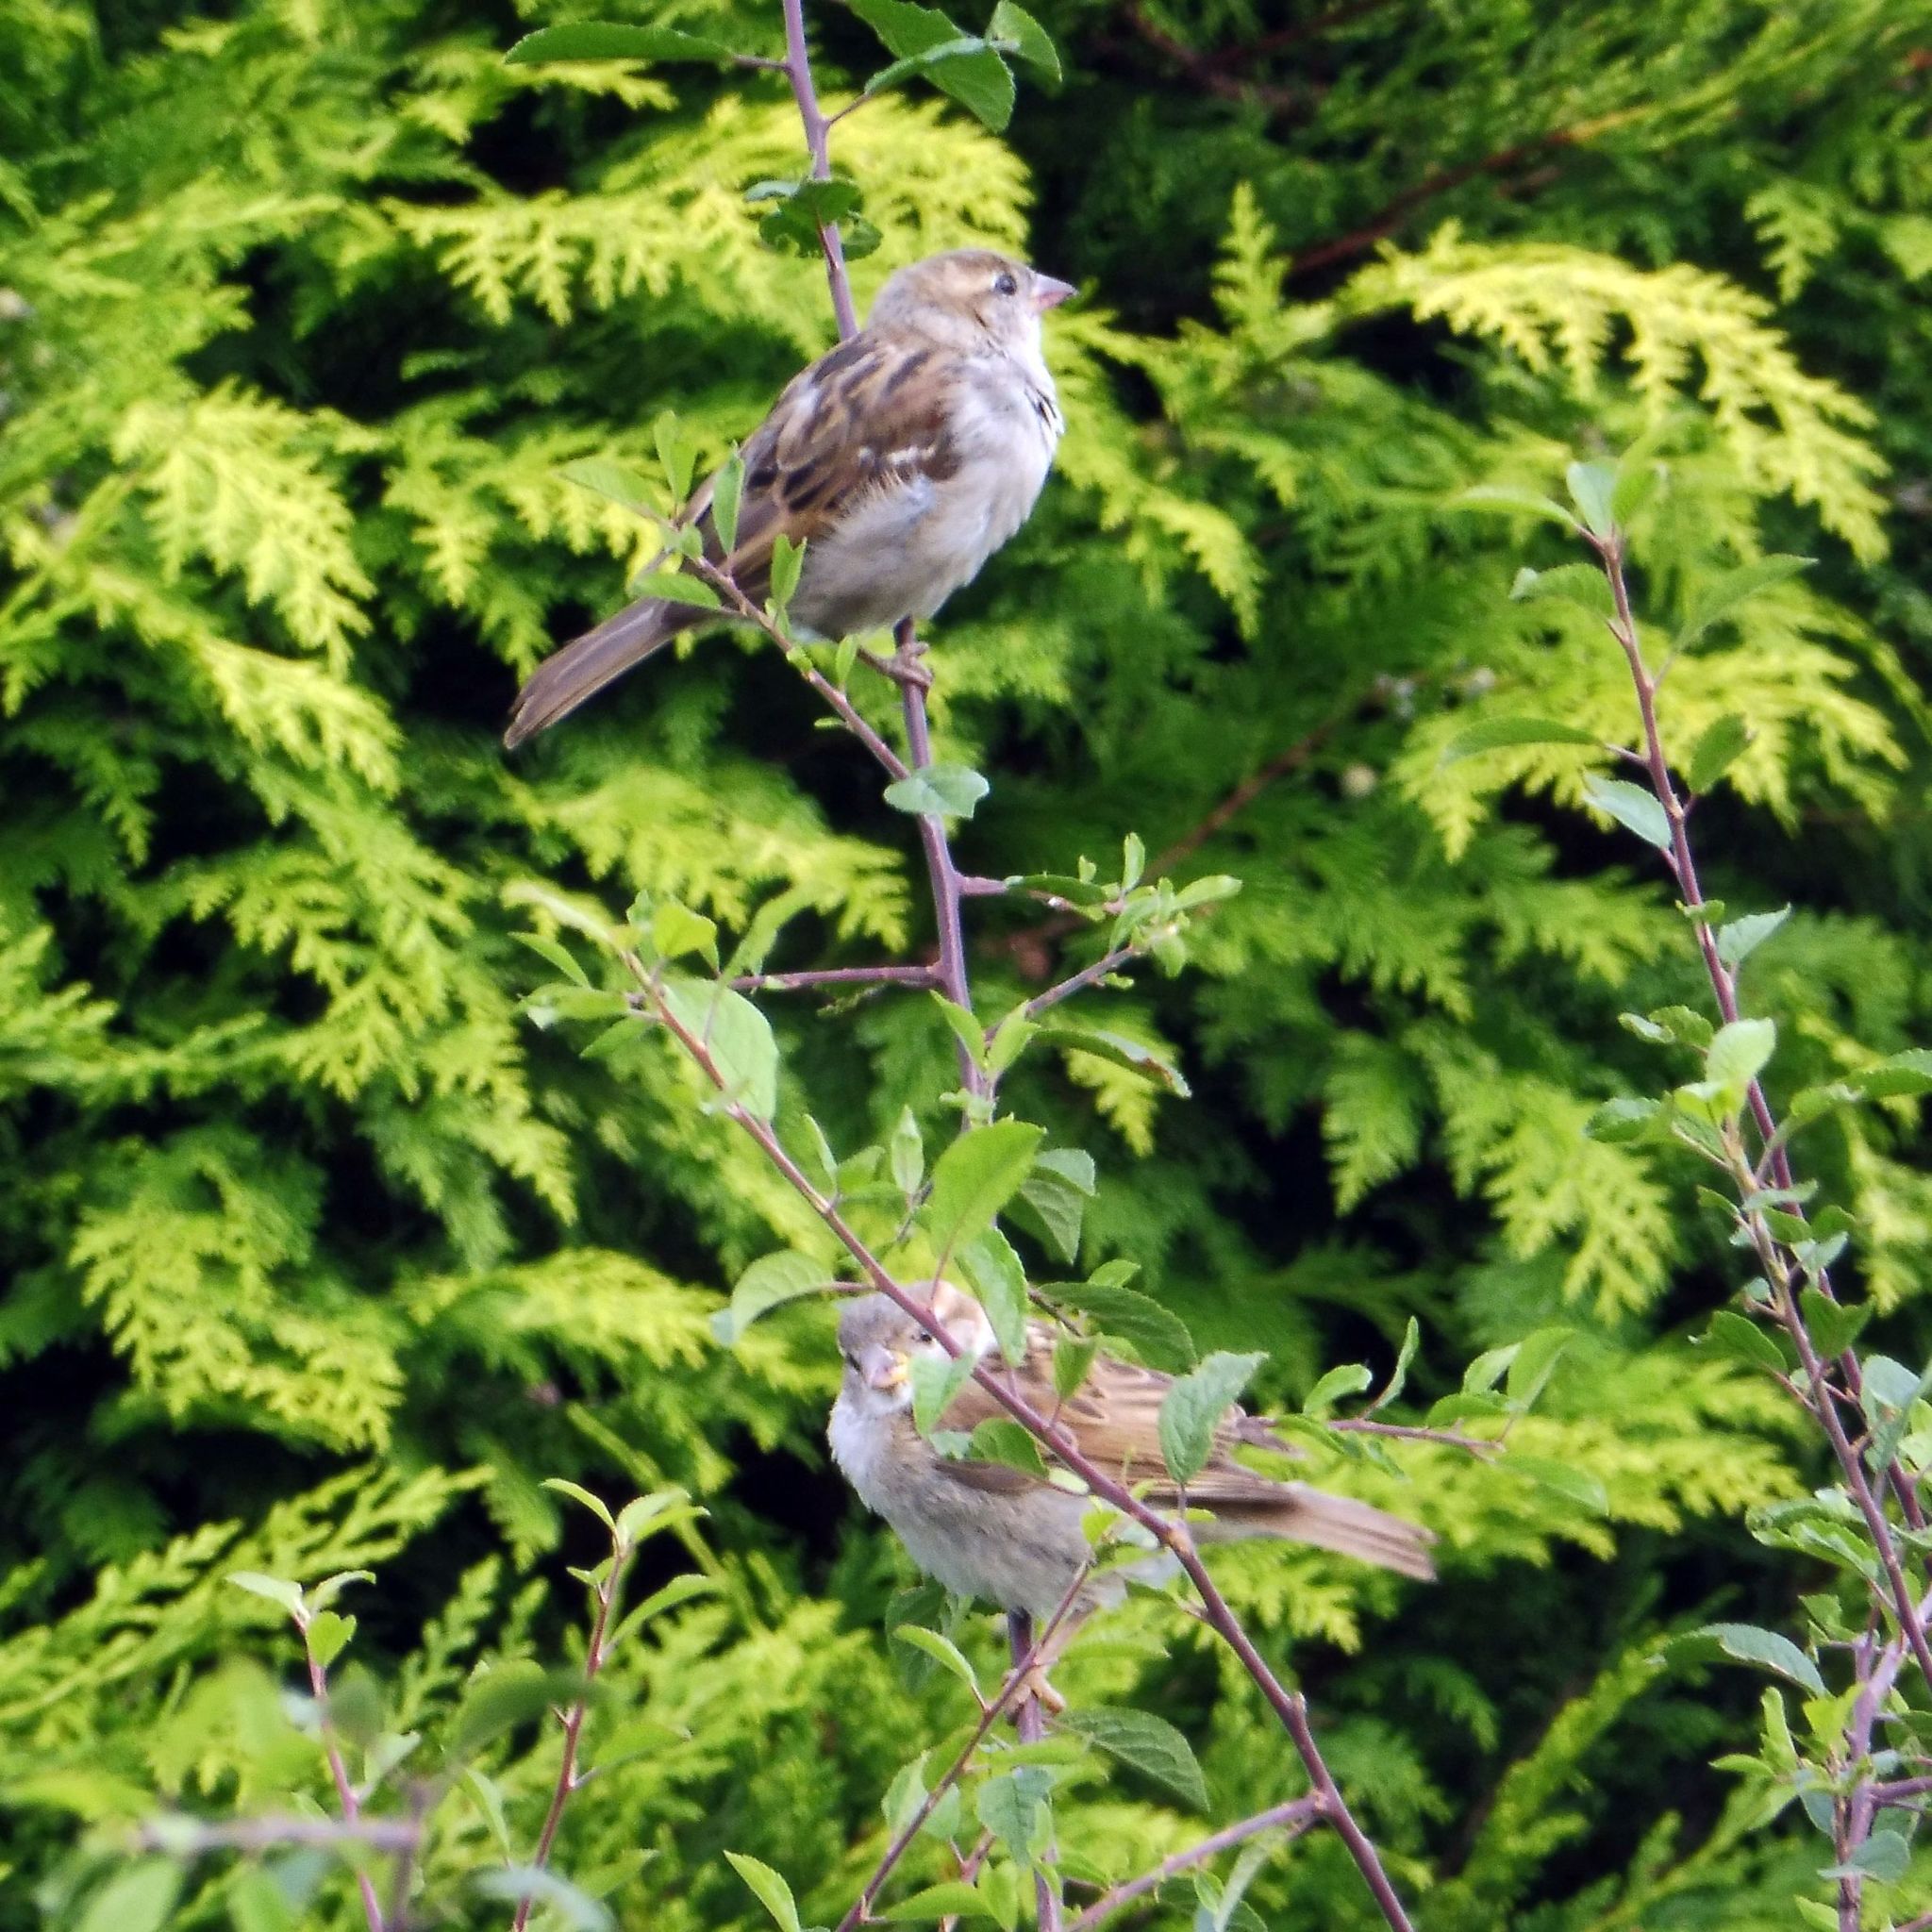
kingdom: Animalia
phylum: Chordata
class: Aves
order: Passeriformes
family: Passeridae
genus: Passer
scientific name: Passer domesticus
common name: House sparrow
